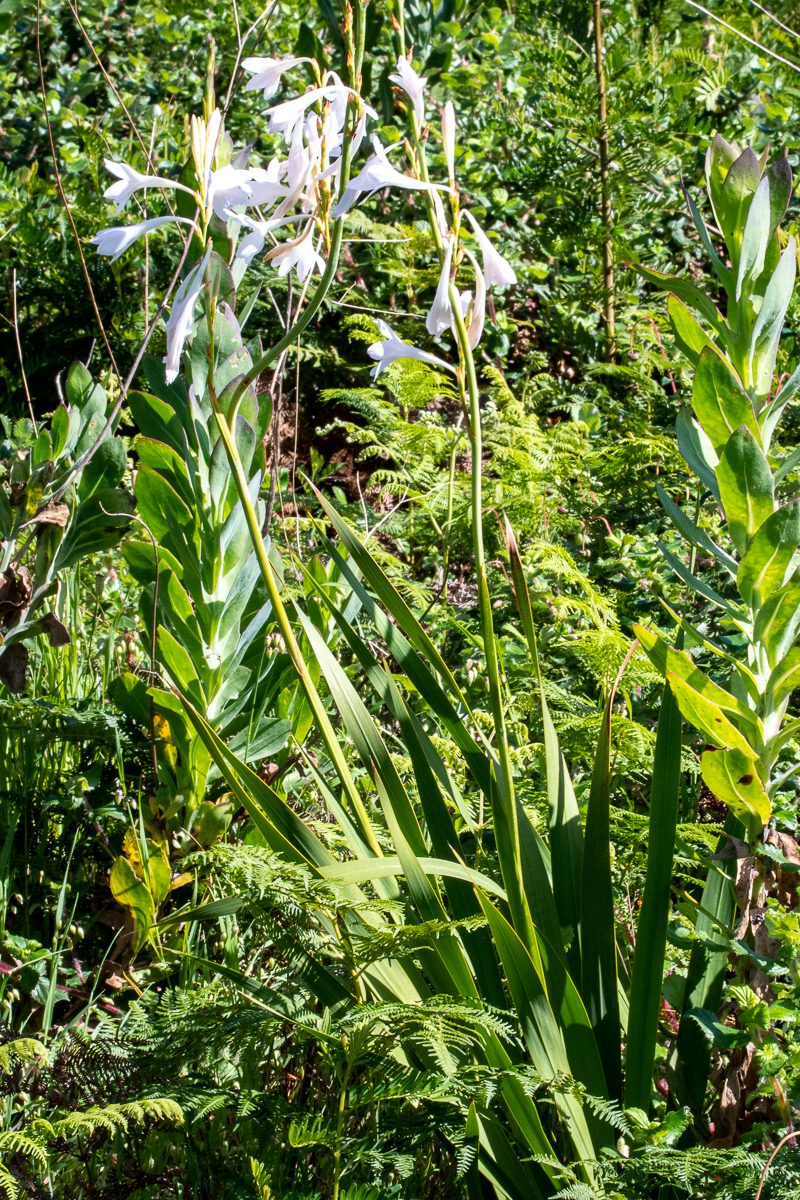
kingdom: Plantae
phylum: Tracheophyta
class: Liliopsida
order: Asparagales
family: Iridaceae
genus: Watsonia
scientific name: Watsonia borbonica
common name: Bugle-lily
